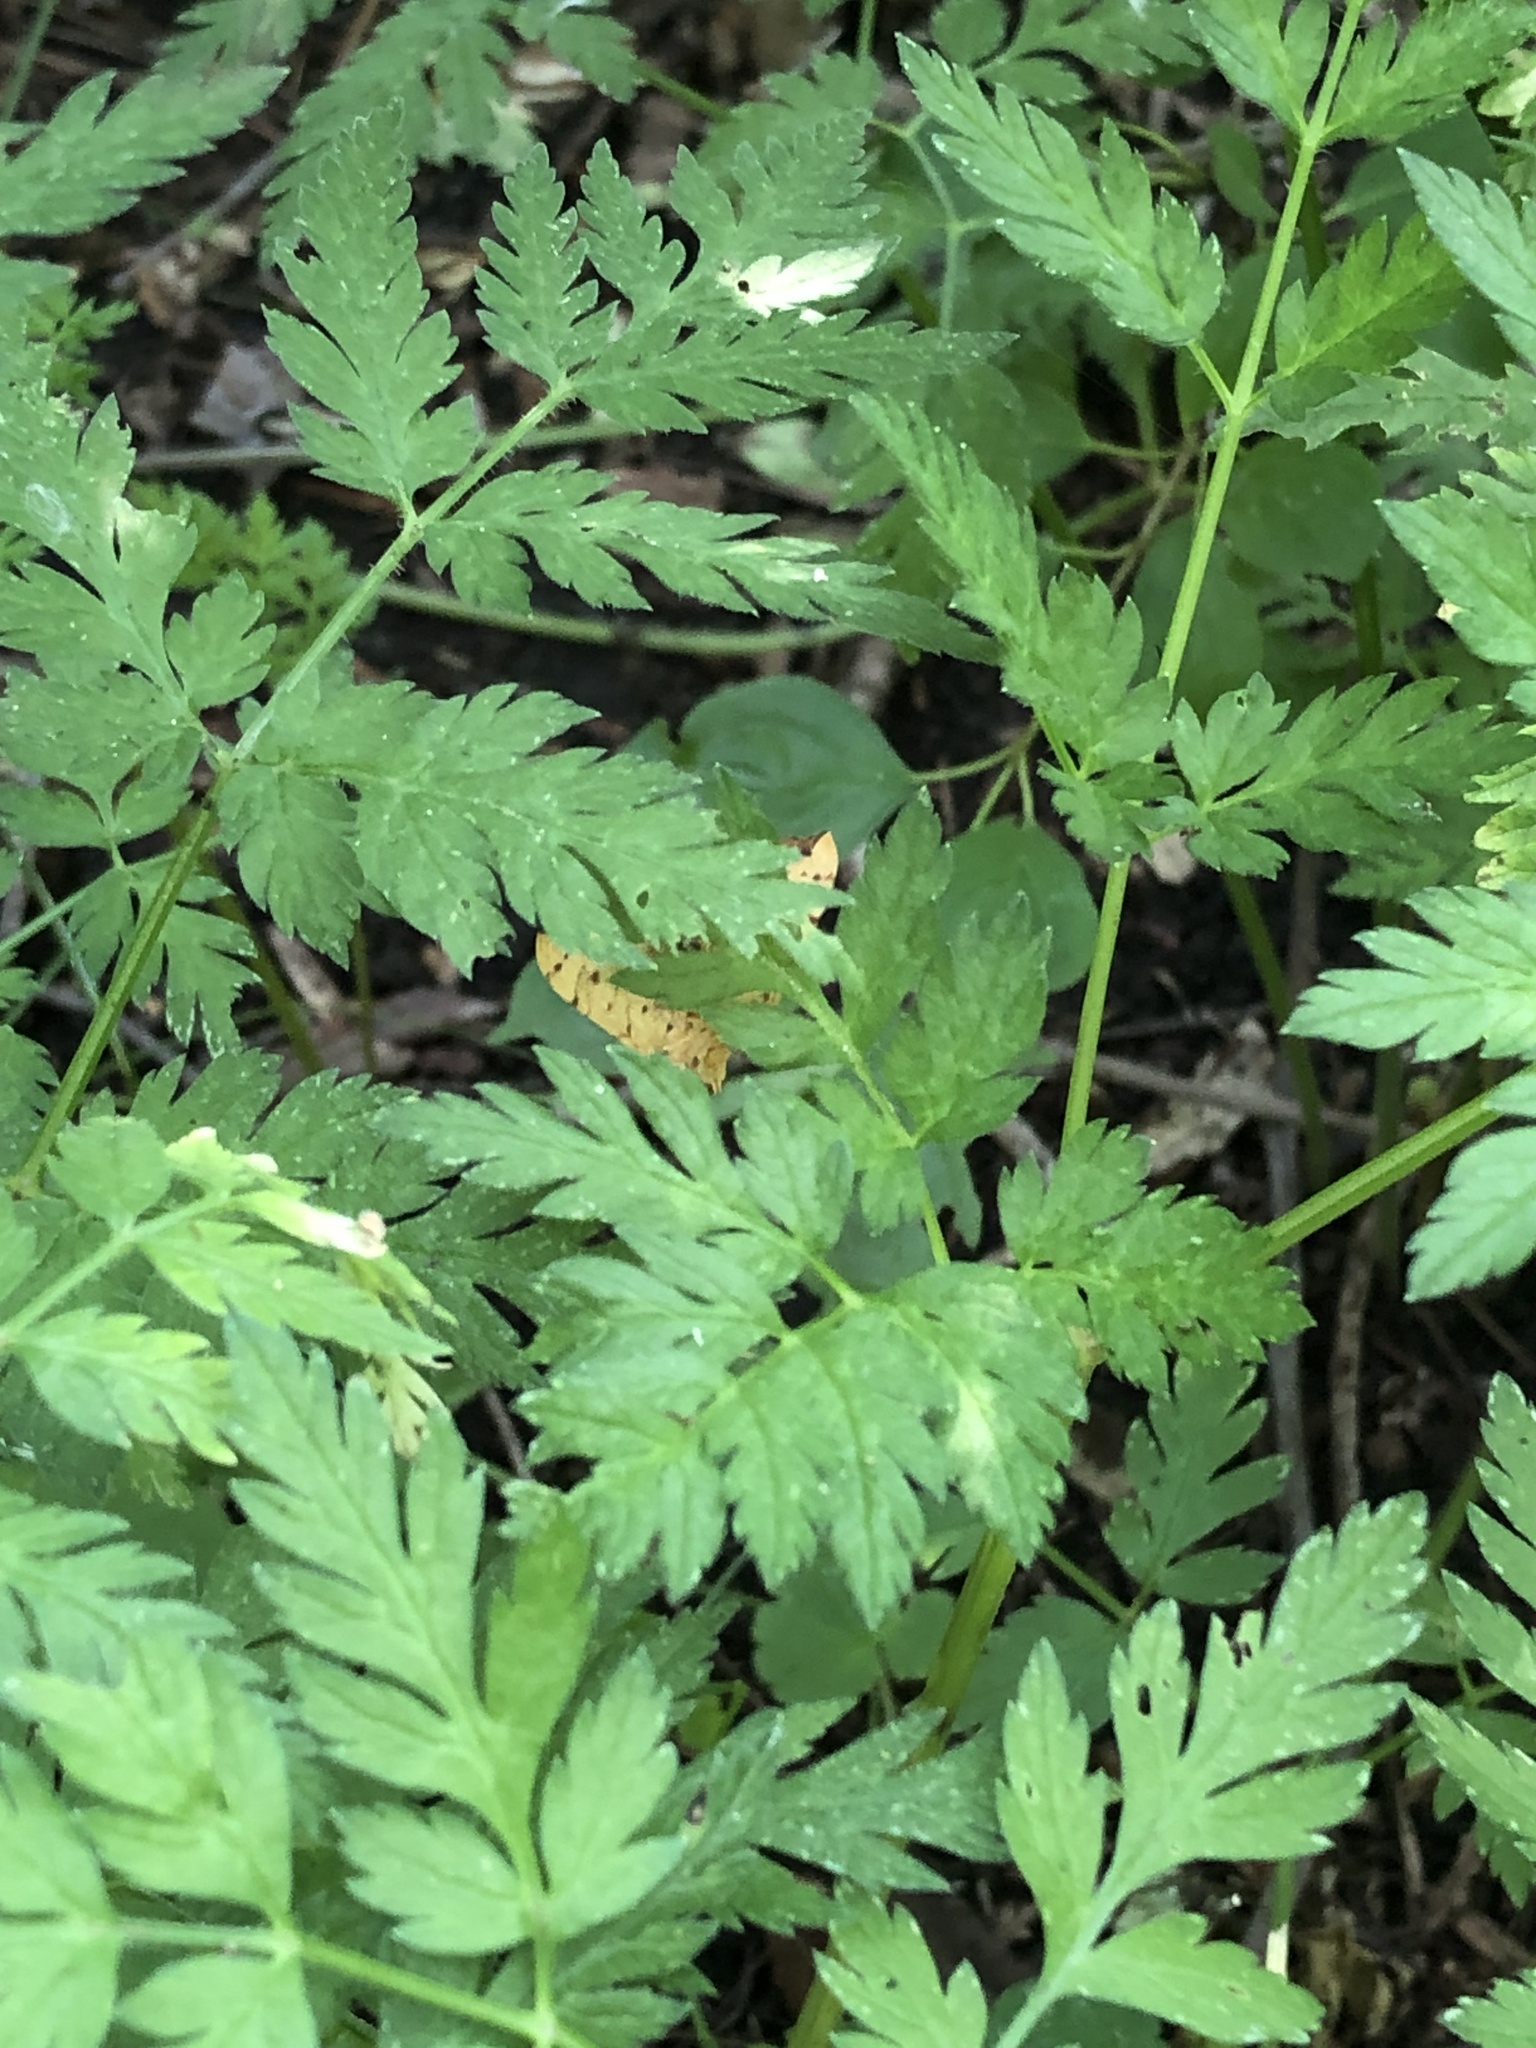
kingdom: Plantae
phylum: Tracheophyta
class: Magnoliopsida
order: Apiales
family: Apiaceae
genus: Conium
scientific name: Conium maculatum
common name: Hemlock
